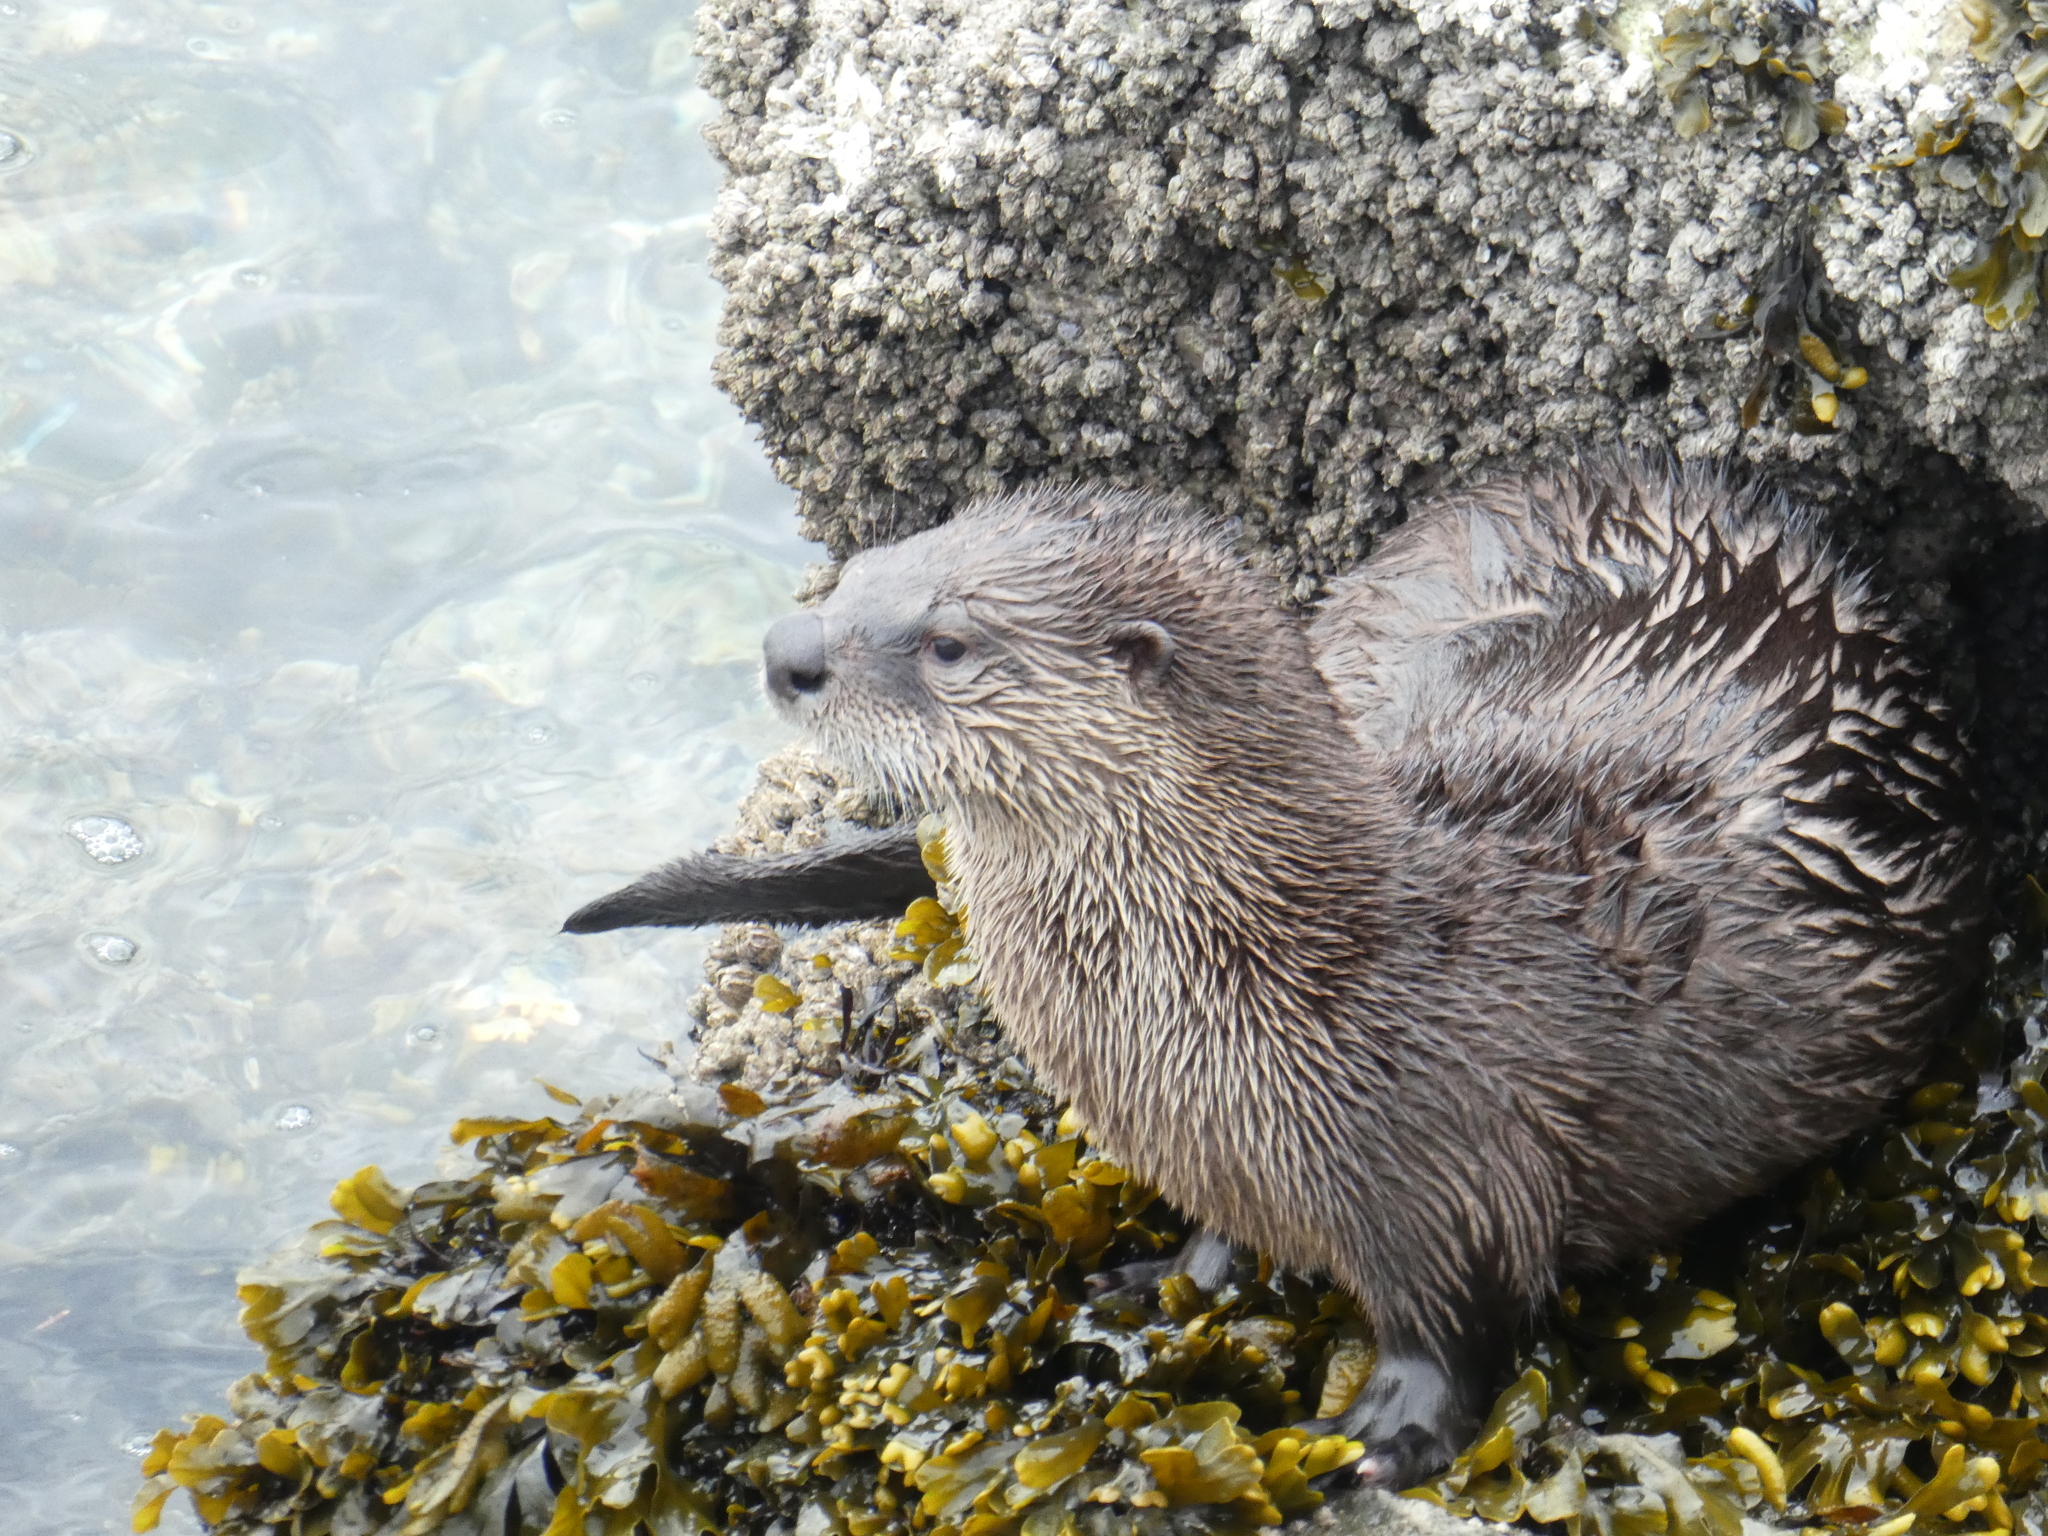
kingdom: Animalia
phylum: Chordata
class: Mammalia
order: Carnivora
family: Mustelidae
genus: Lontra
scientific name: Lontra canadensis
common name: North american river otter
